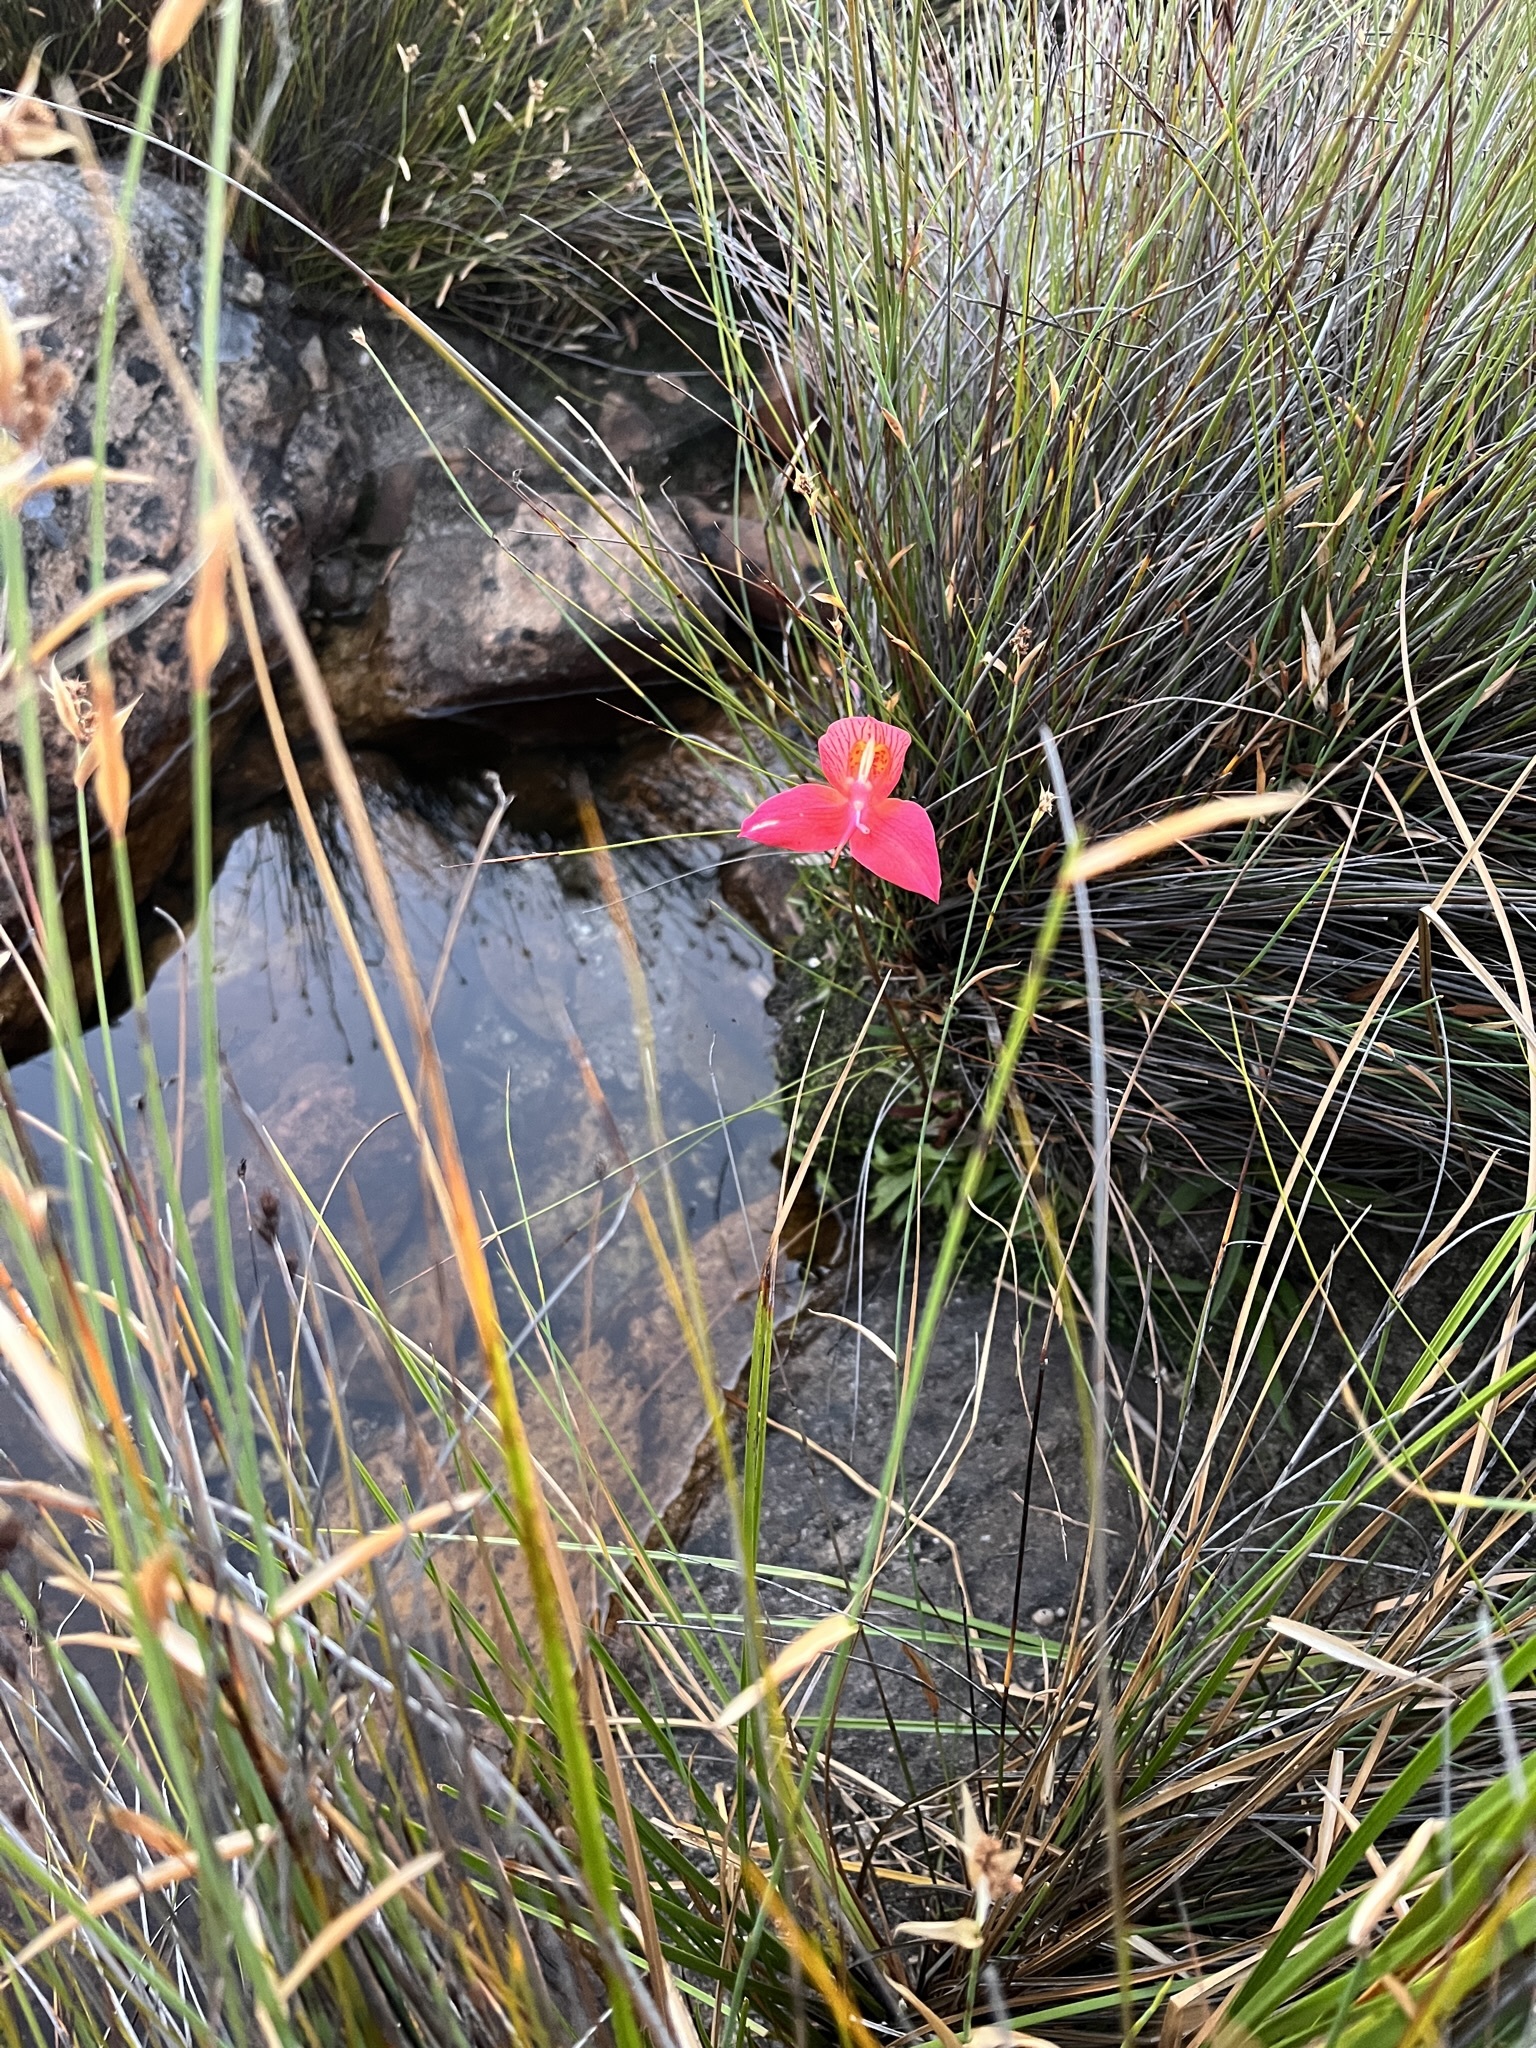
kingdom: Plantae
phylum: Tracheophyta
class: Liliopsida
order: Asparagales
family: Orchidaceae
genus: Disa
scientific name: Disa uniflora
